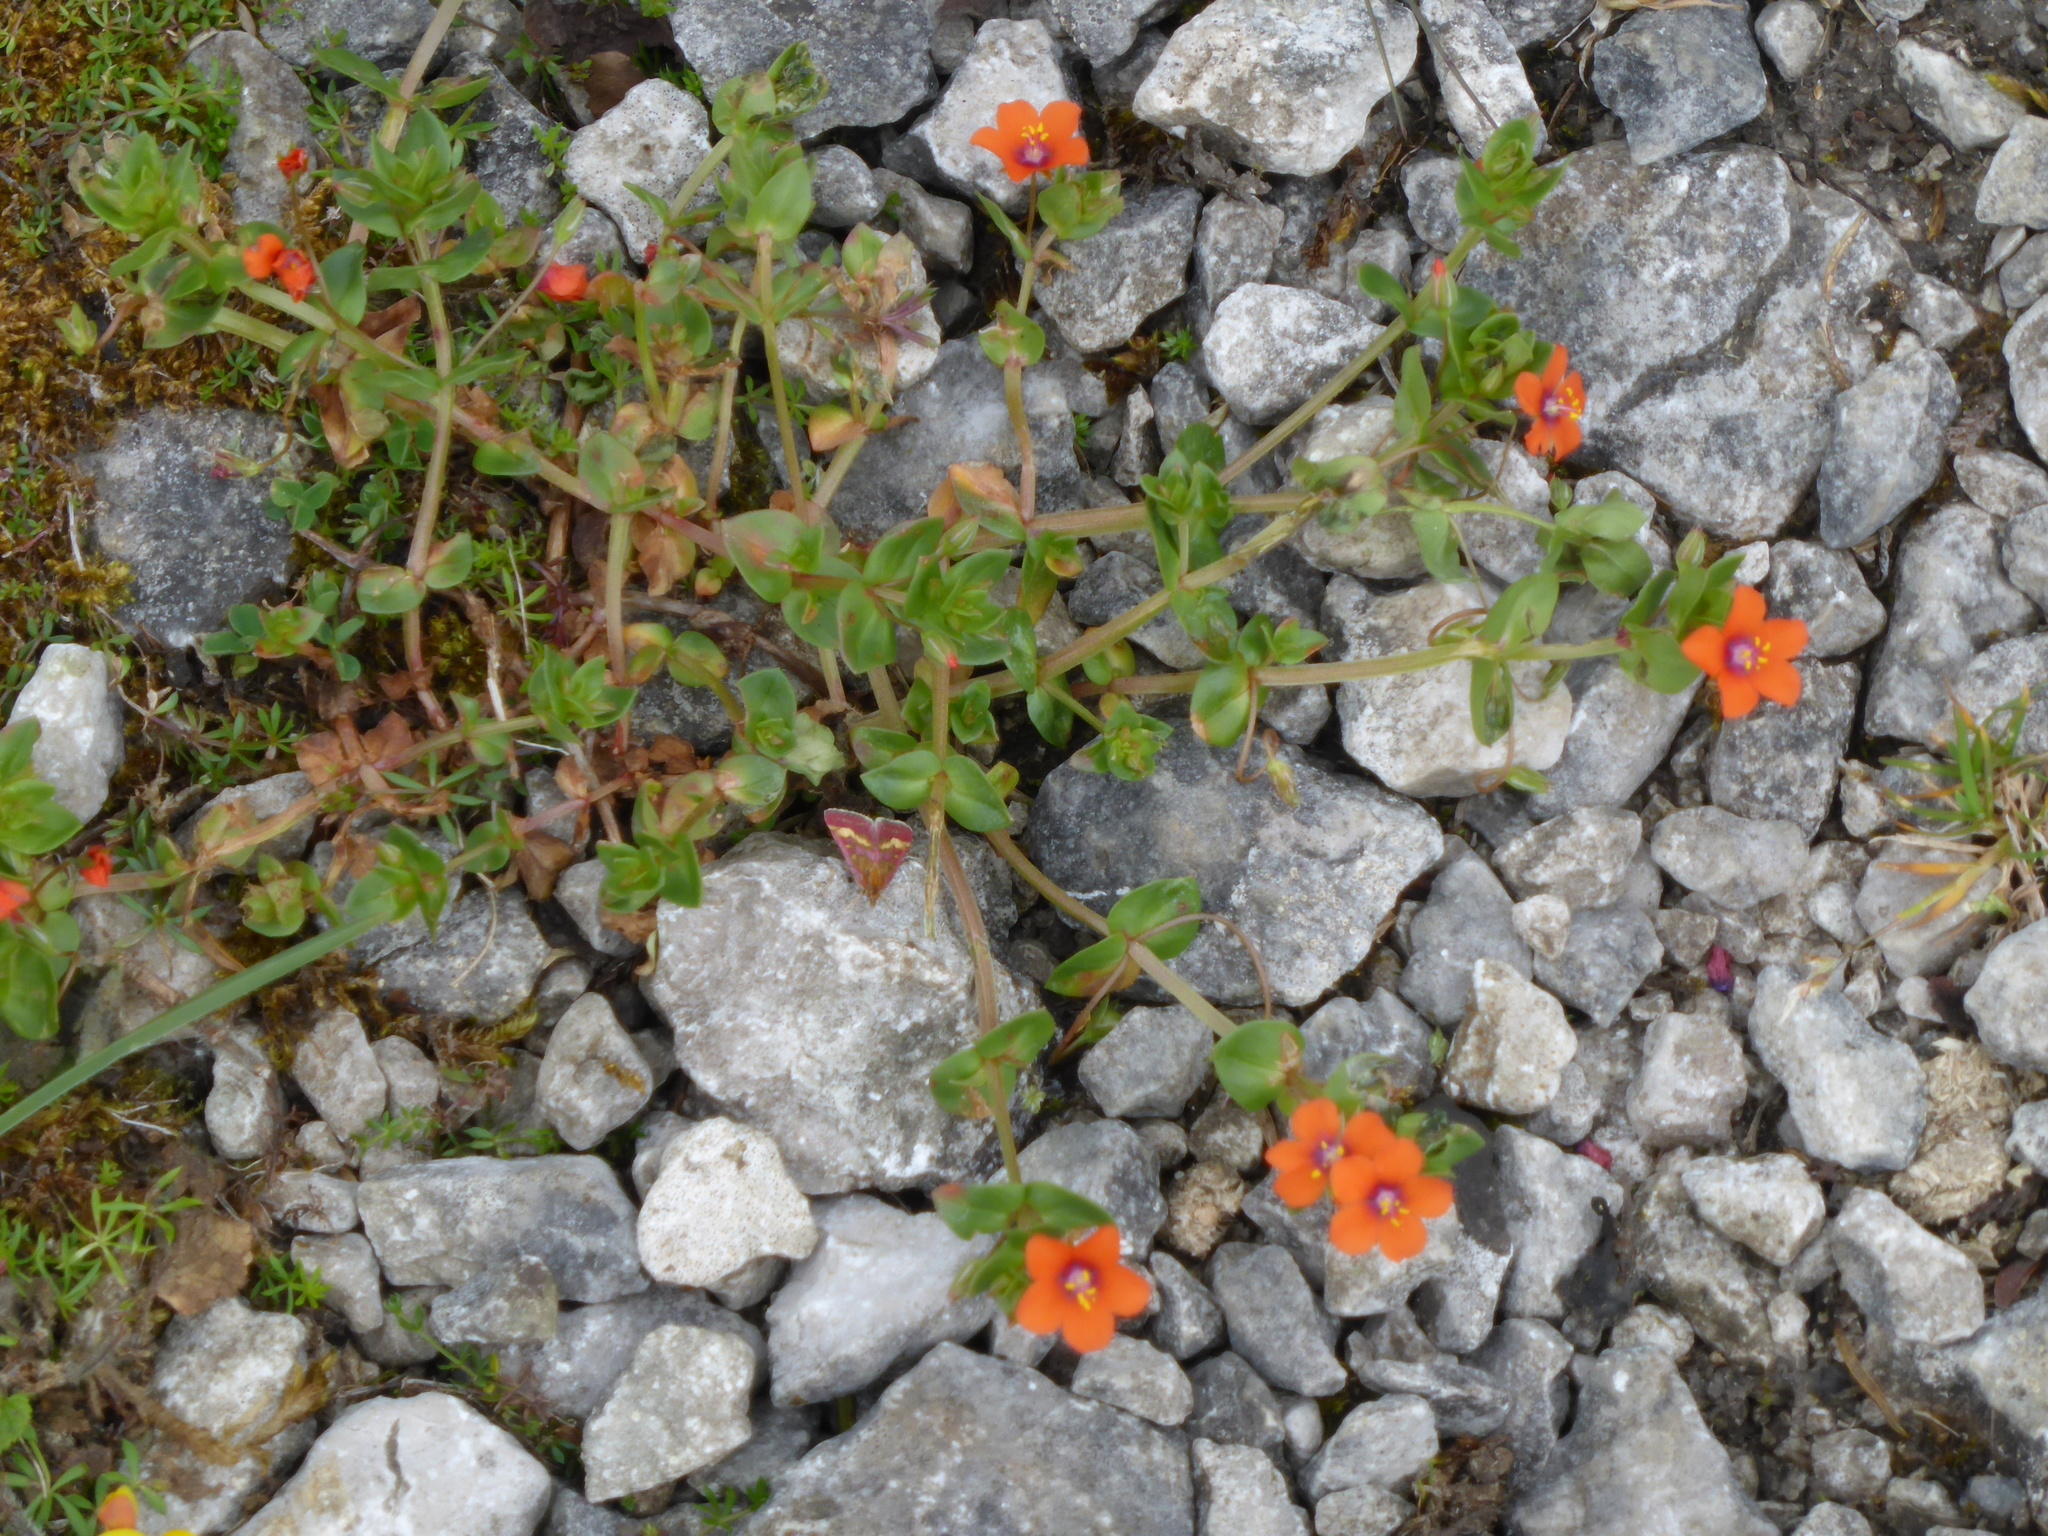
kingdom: Plantae
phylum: Tracheophyta
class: Magnoliopsida
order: Ericales
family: Primulaceae
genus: Lysimachia
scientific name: Lysimachia arvensis
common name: Scarlet pimpernel
